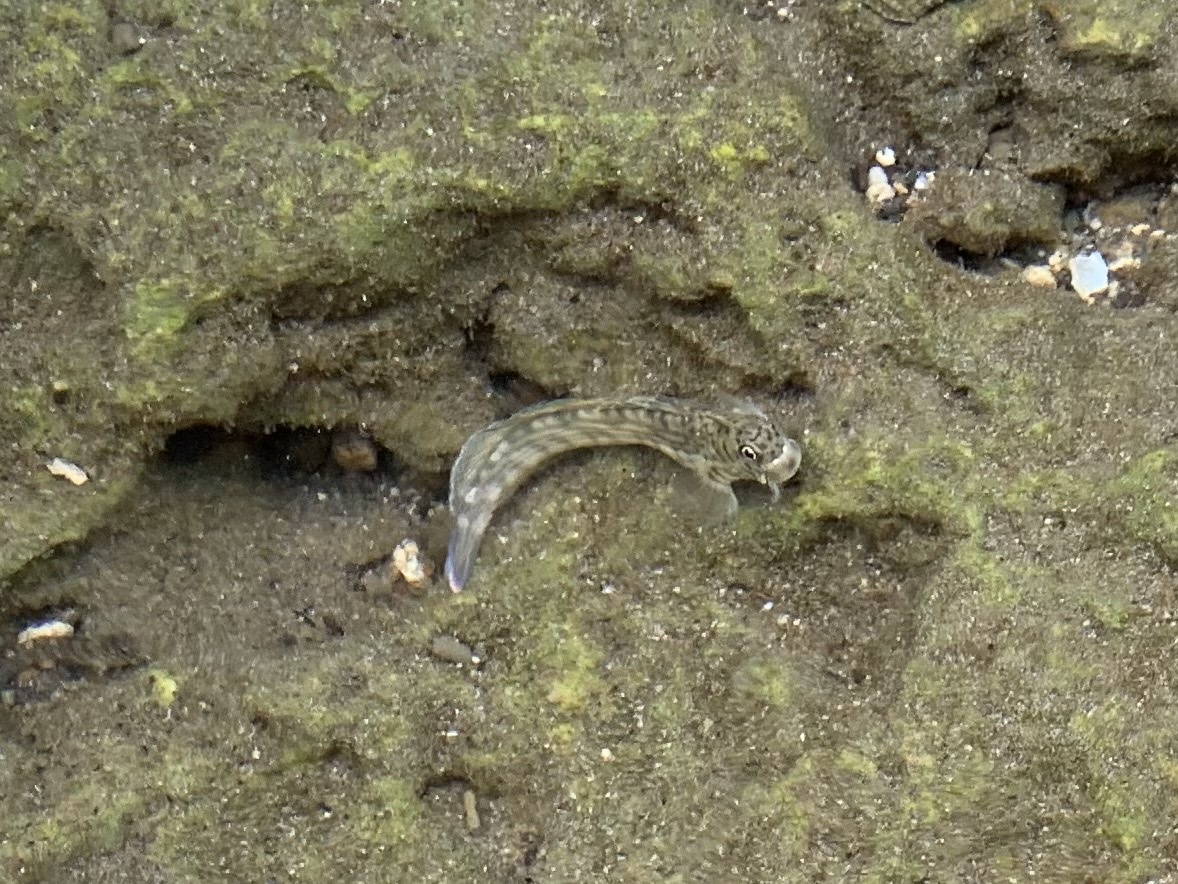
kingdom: Animalia
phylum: Chordata
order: Perciformes
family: Blenniidae
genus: Istiblennius
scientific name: Istiblennius lineatus
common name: Black-lined blenny
